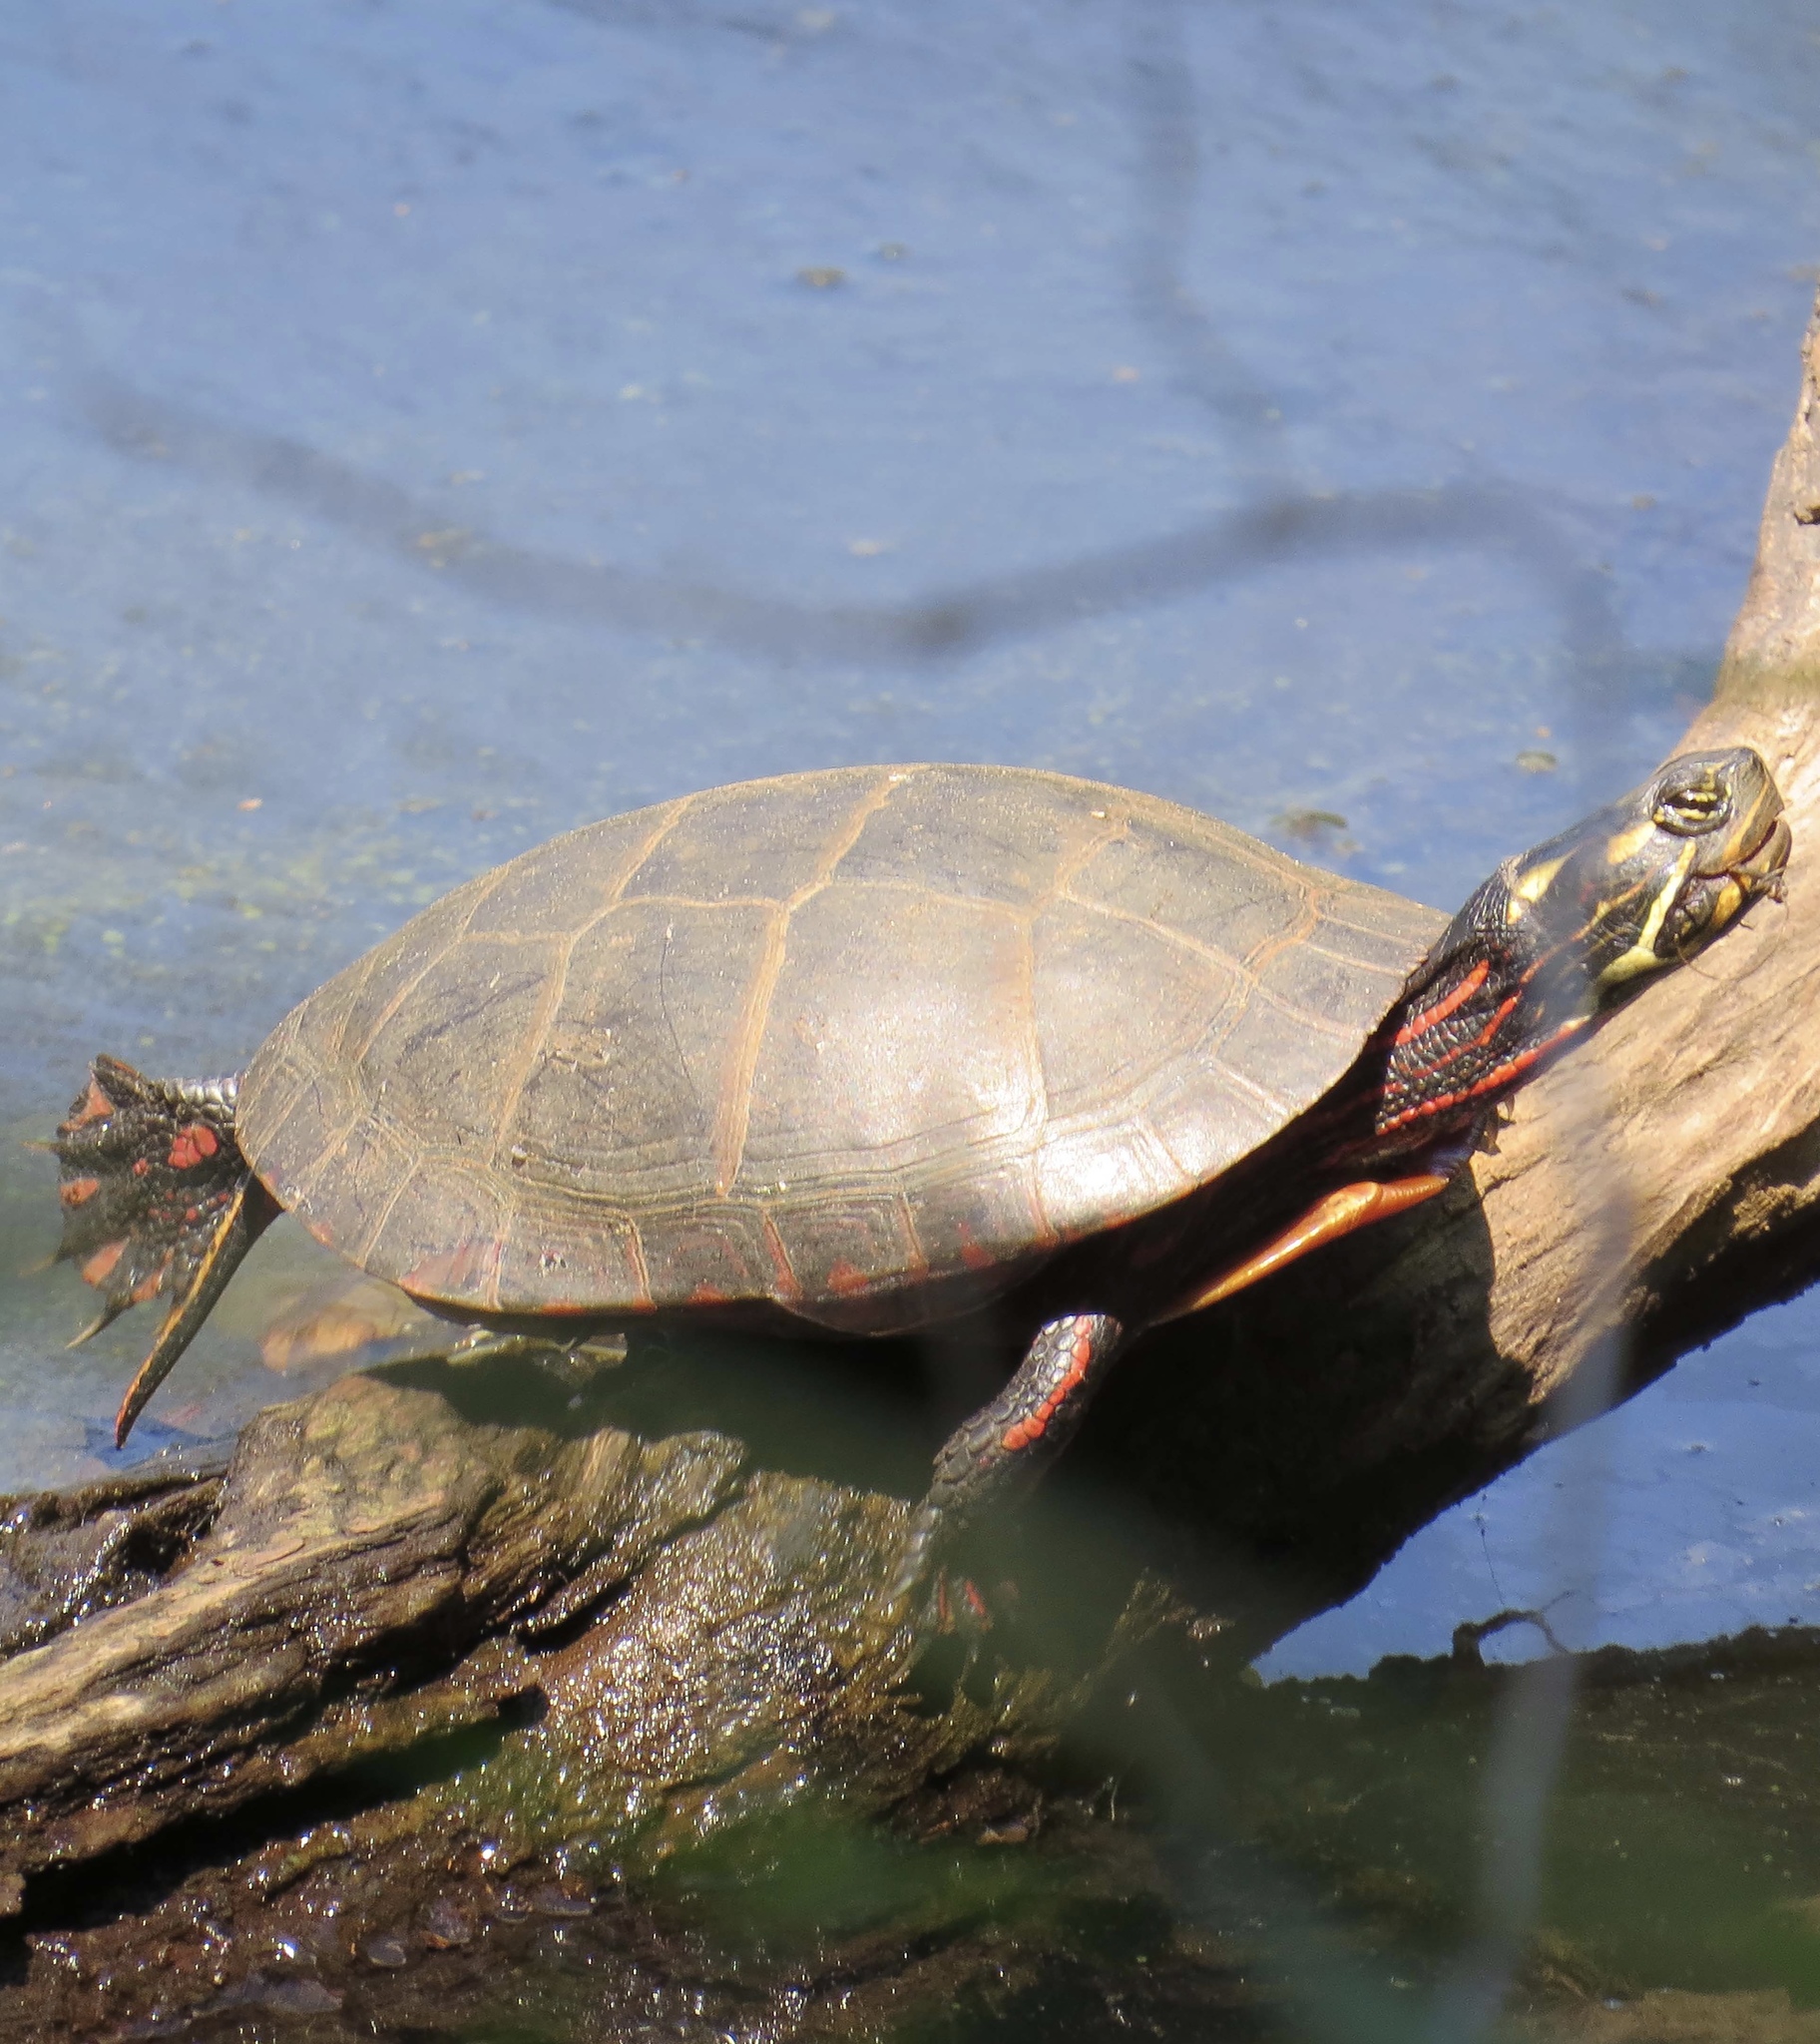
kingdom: Animalia
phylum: Chordata
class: Testudines
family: Emydidae
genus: Chrysemys
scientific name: Chrysemys picta
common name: Painted turtle
